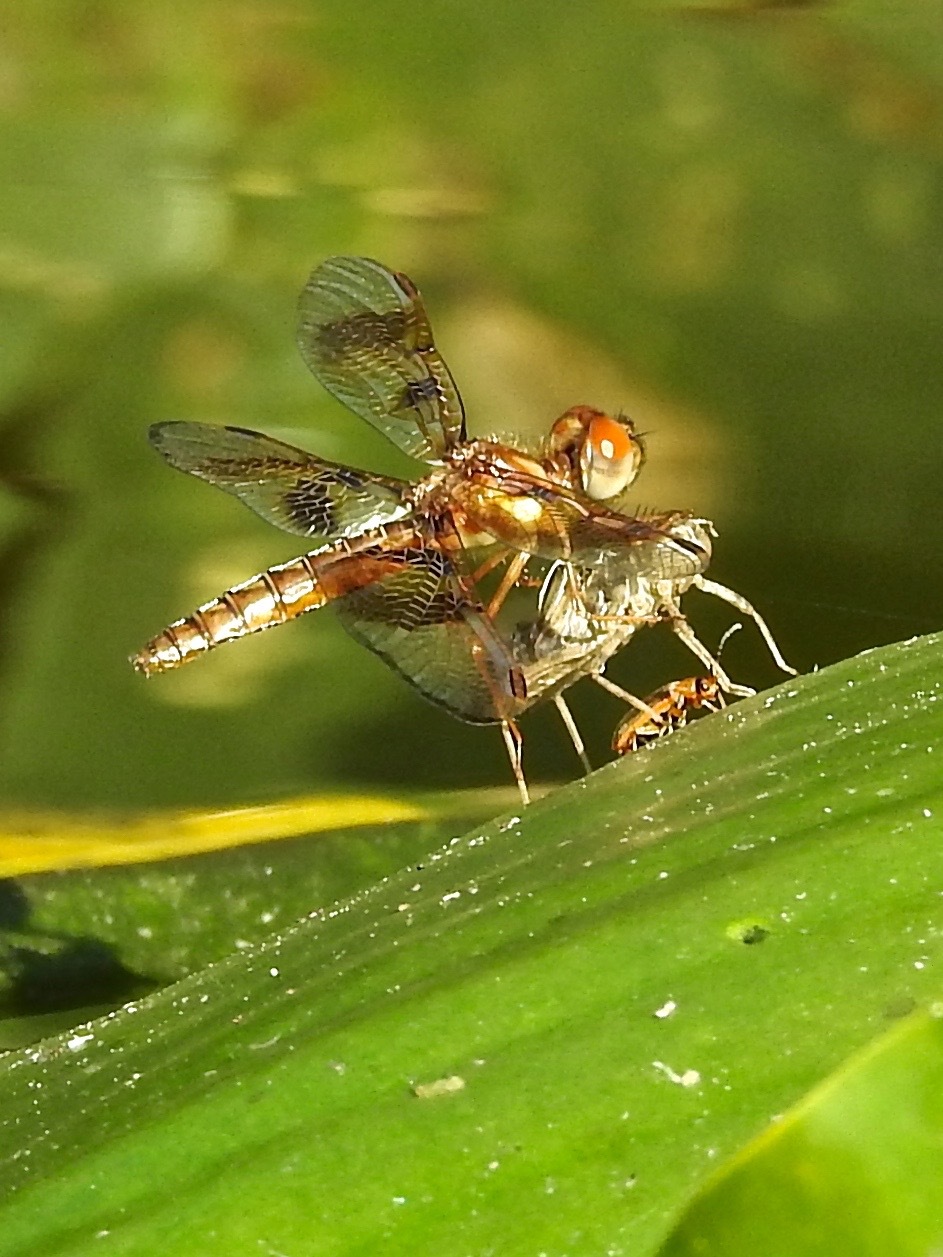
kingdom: Animalia
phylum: Arthropoda
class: Insecta
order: Odonata
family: Libellulidae
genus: Perithemis
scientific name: Perithemis tenera
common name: Eastern amberwing
